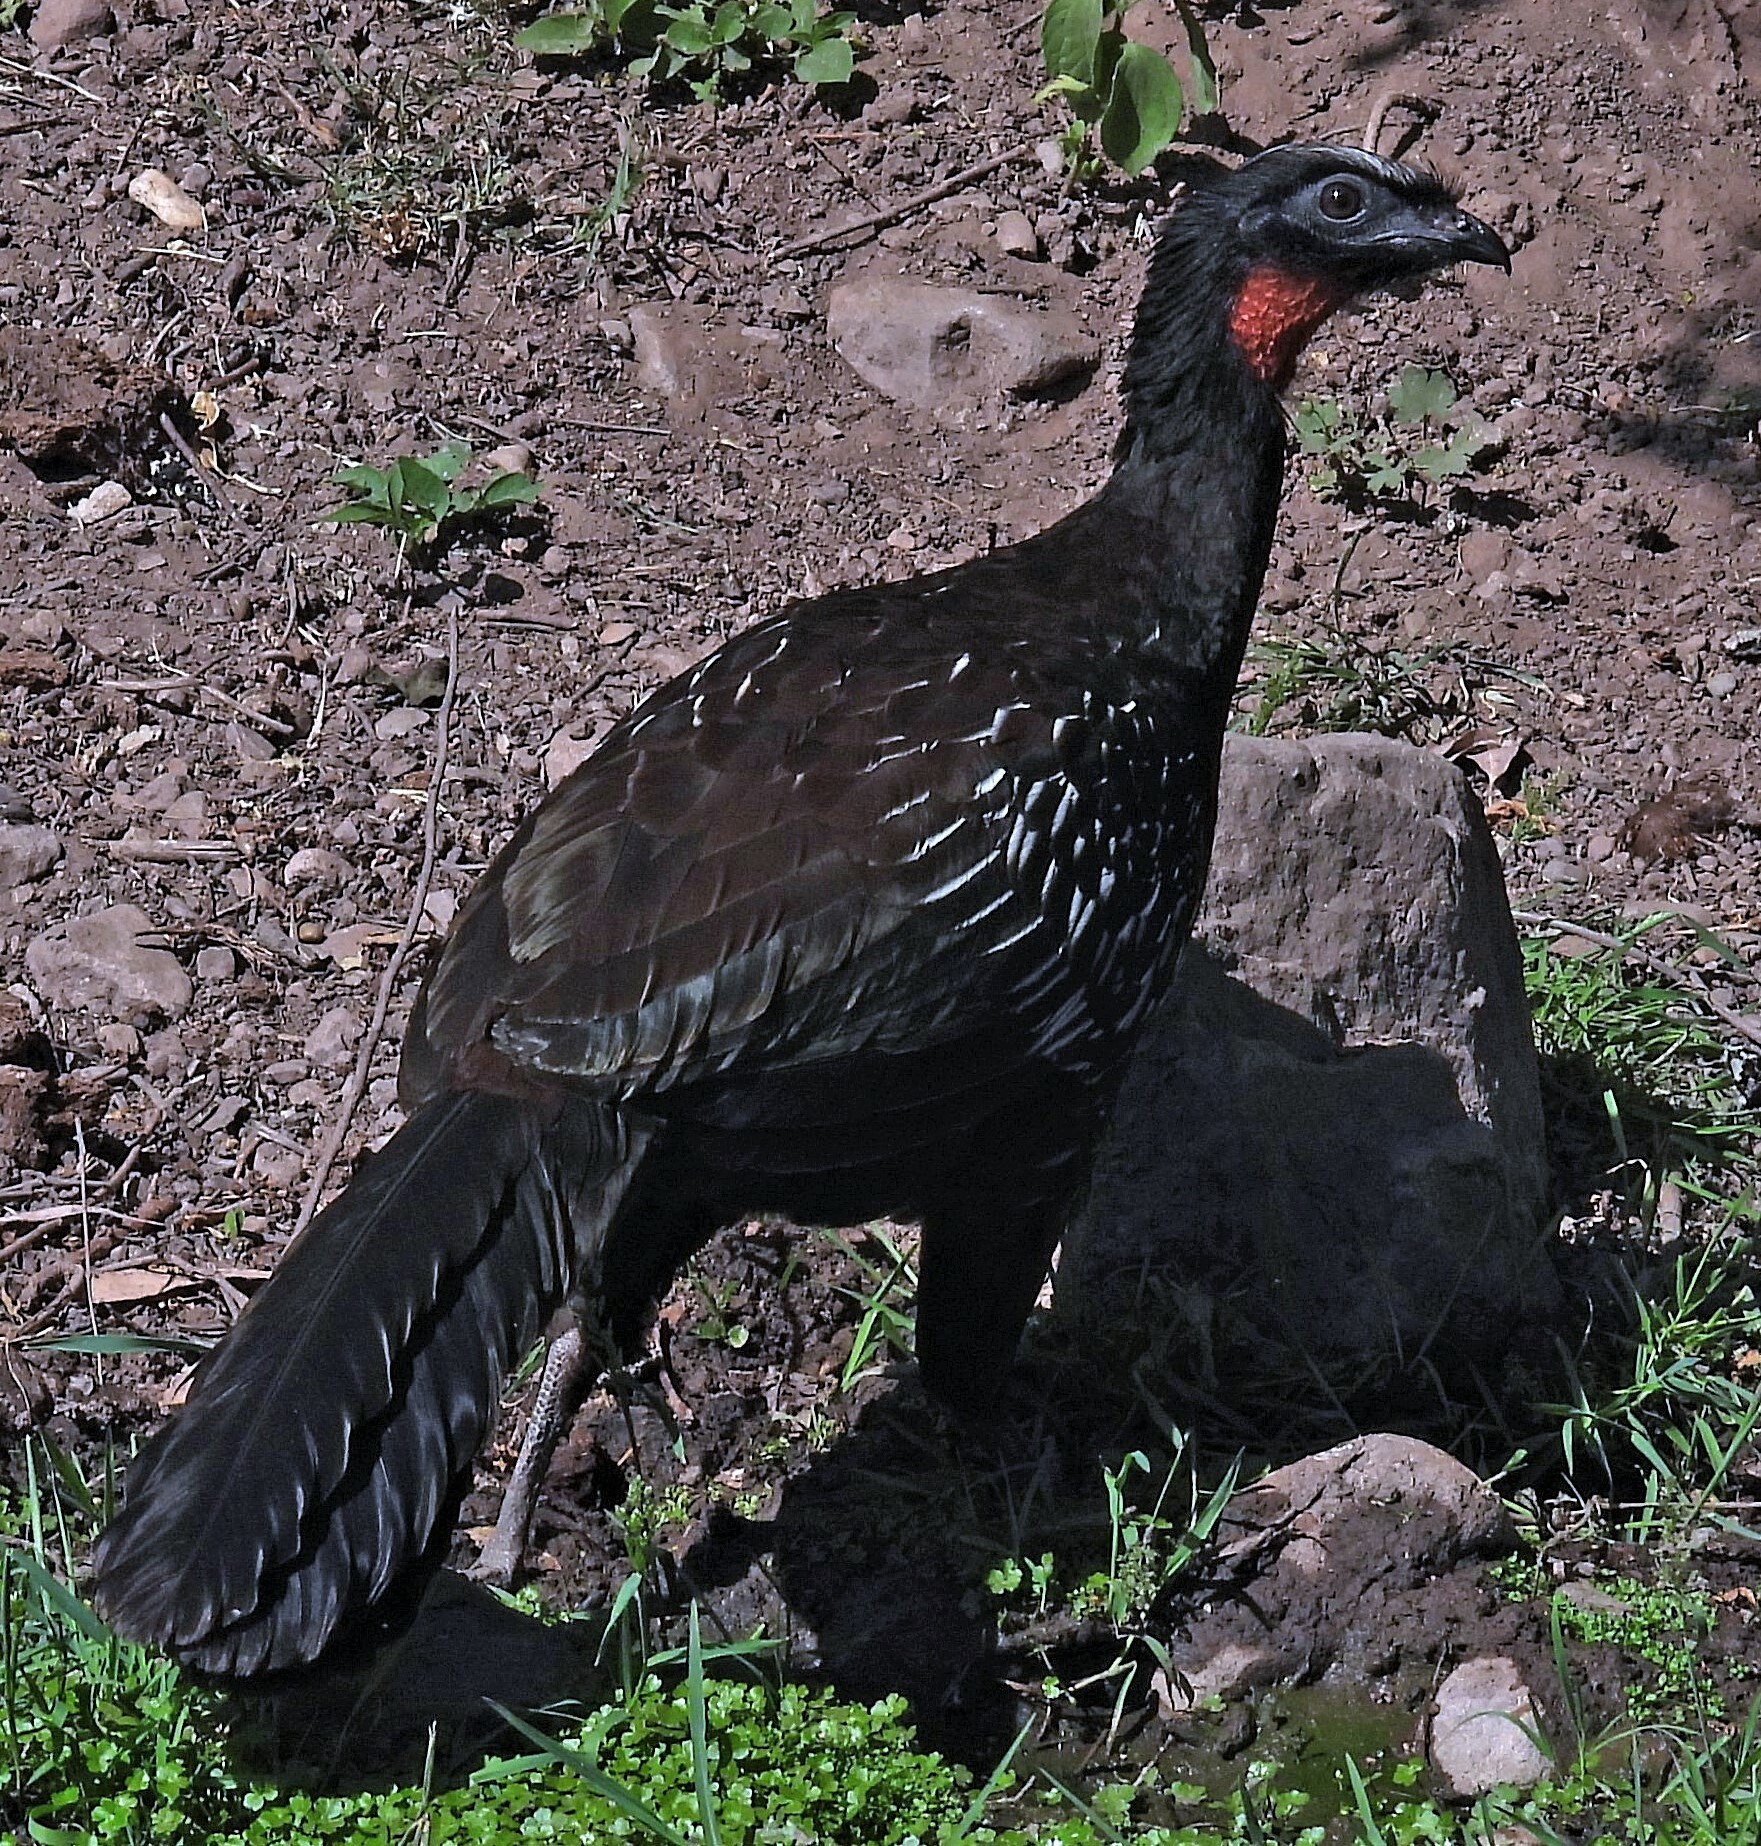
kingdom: Animalia
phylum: Chordata
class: Aves
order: Galliformes
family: Cracidae
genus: Penelope
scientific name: Penelope bridgesi
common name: Yungas guan
